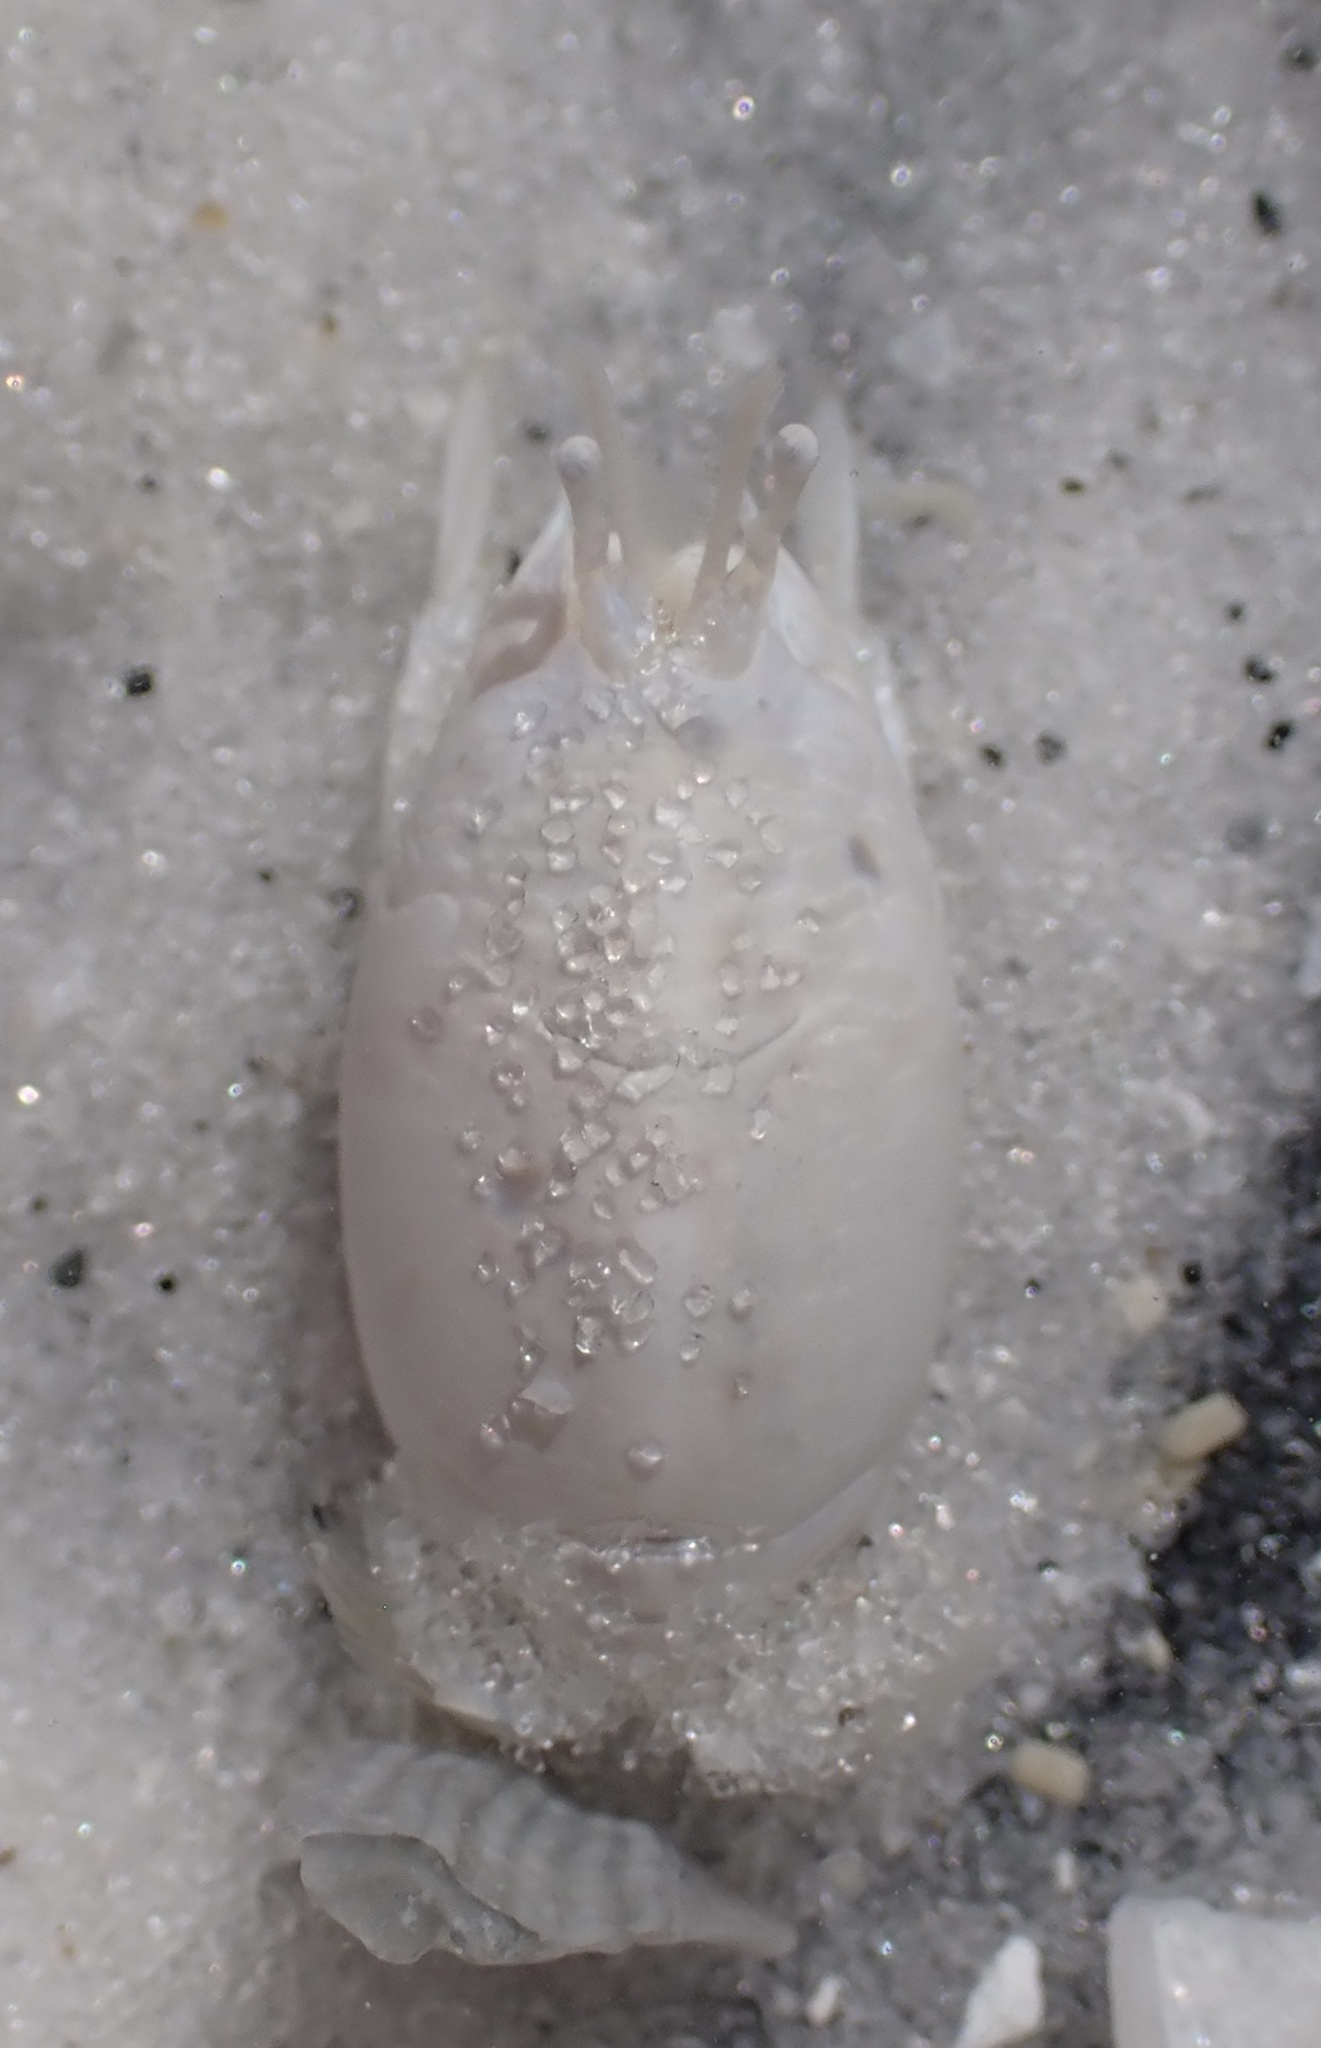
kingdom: Animalia
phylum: Arthropoda
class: Malacostraca
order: Decapoda
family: Hippidae
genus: Emerita
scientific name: Emerita talpoida
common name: Atlantic sand crab
